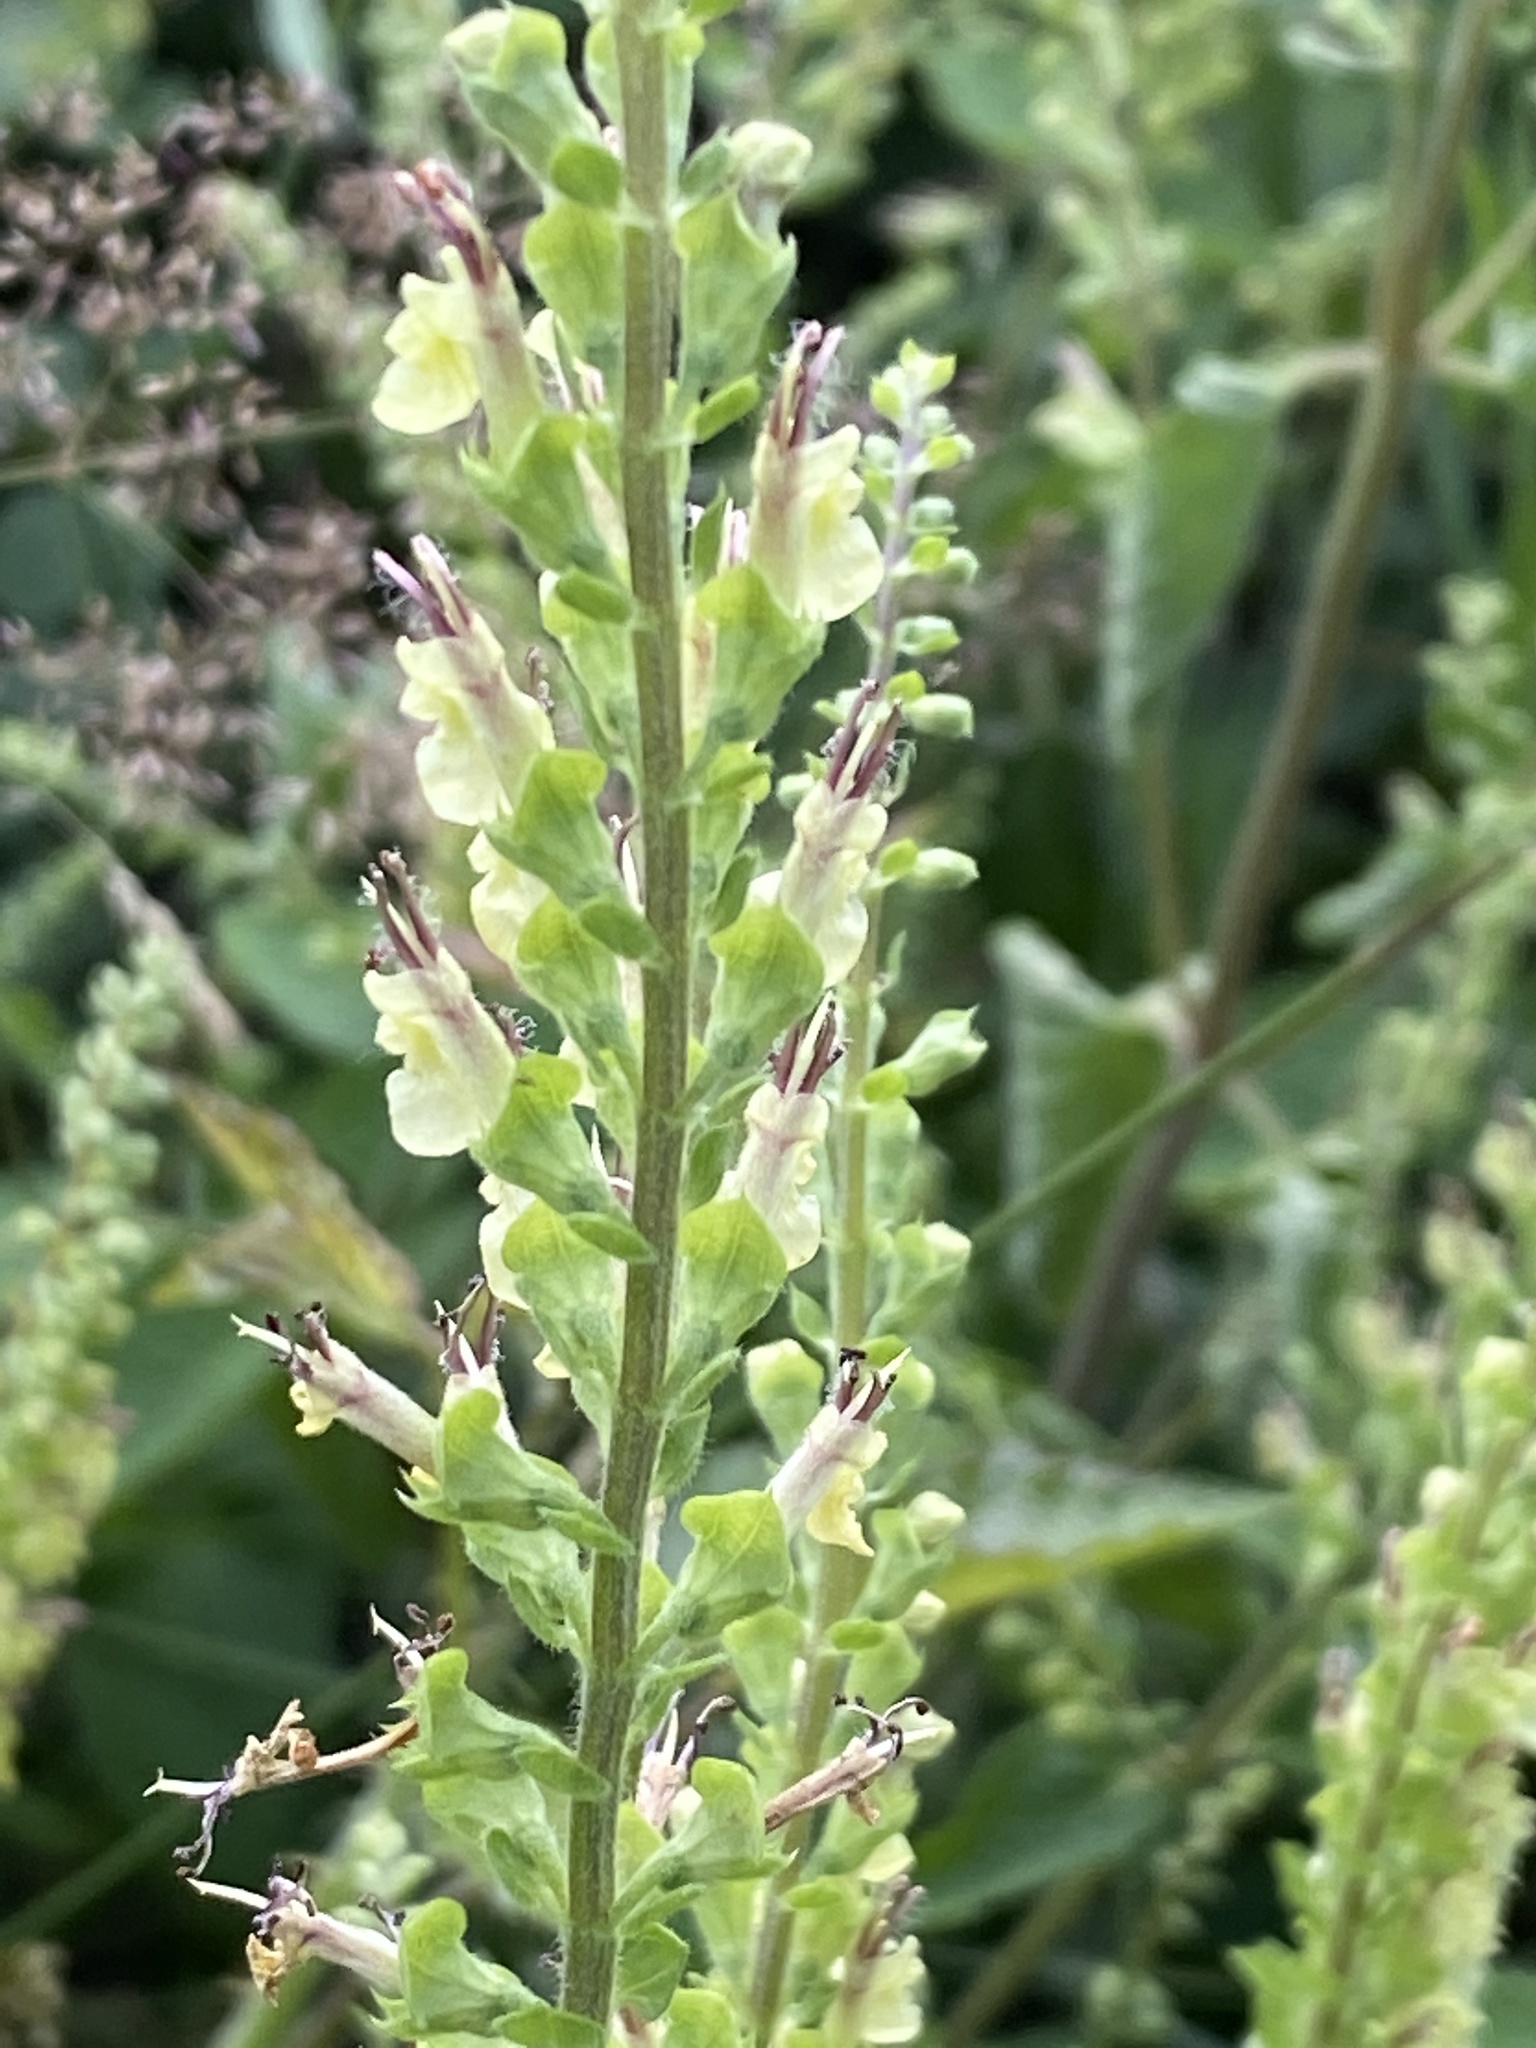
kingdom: Plantae
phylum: Tracheophyta
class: Magnoliopsida
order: Lamiales
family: Lamiaceae
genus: Teucrium
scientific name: Teucrium scorodonia
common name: Woodland germander
